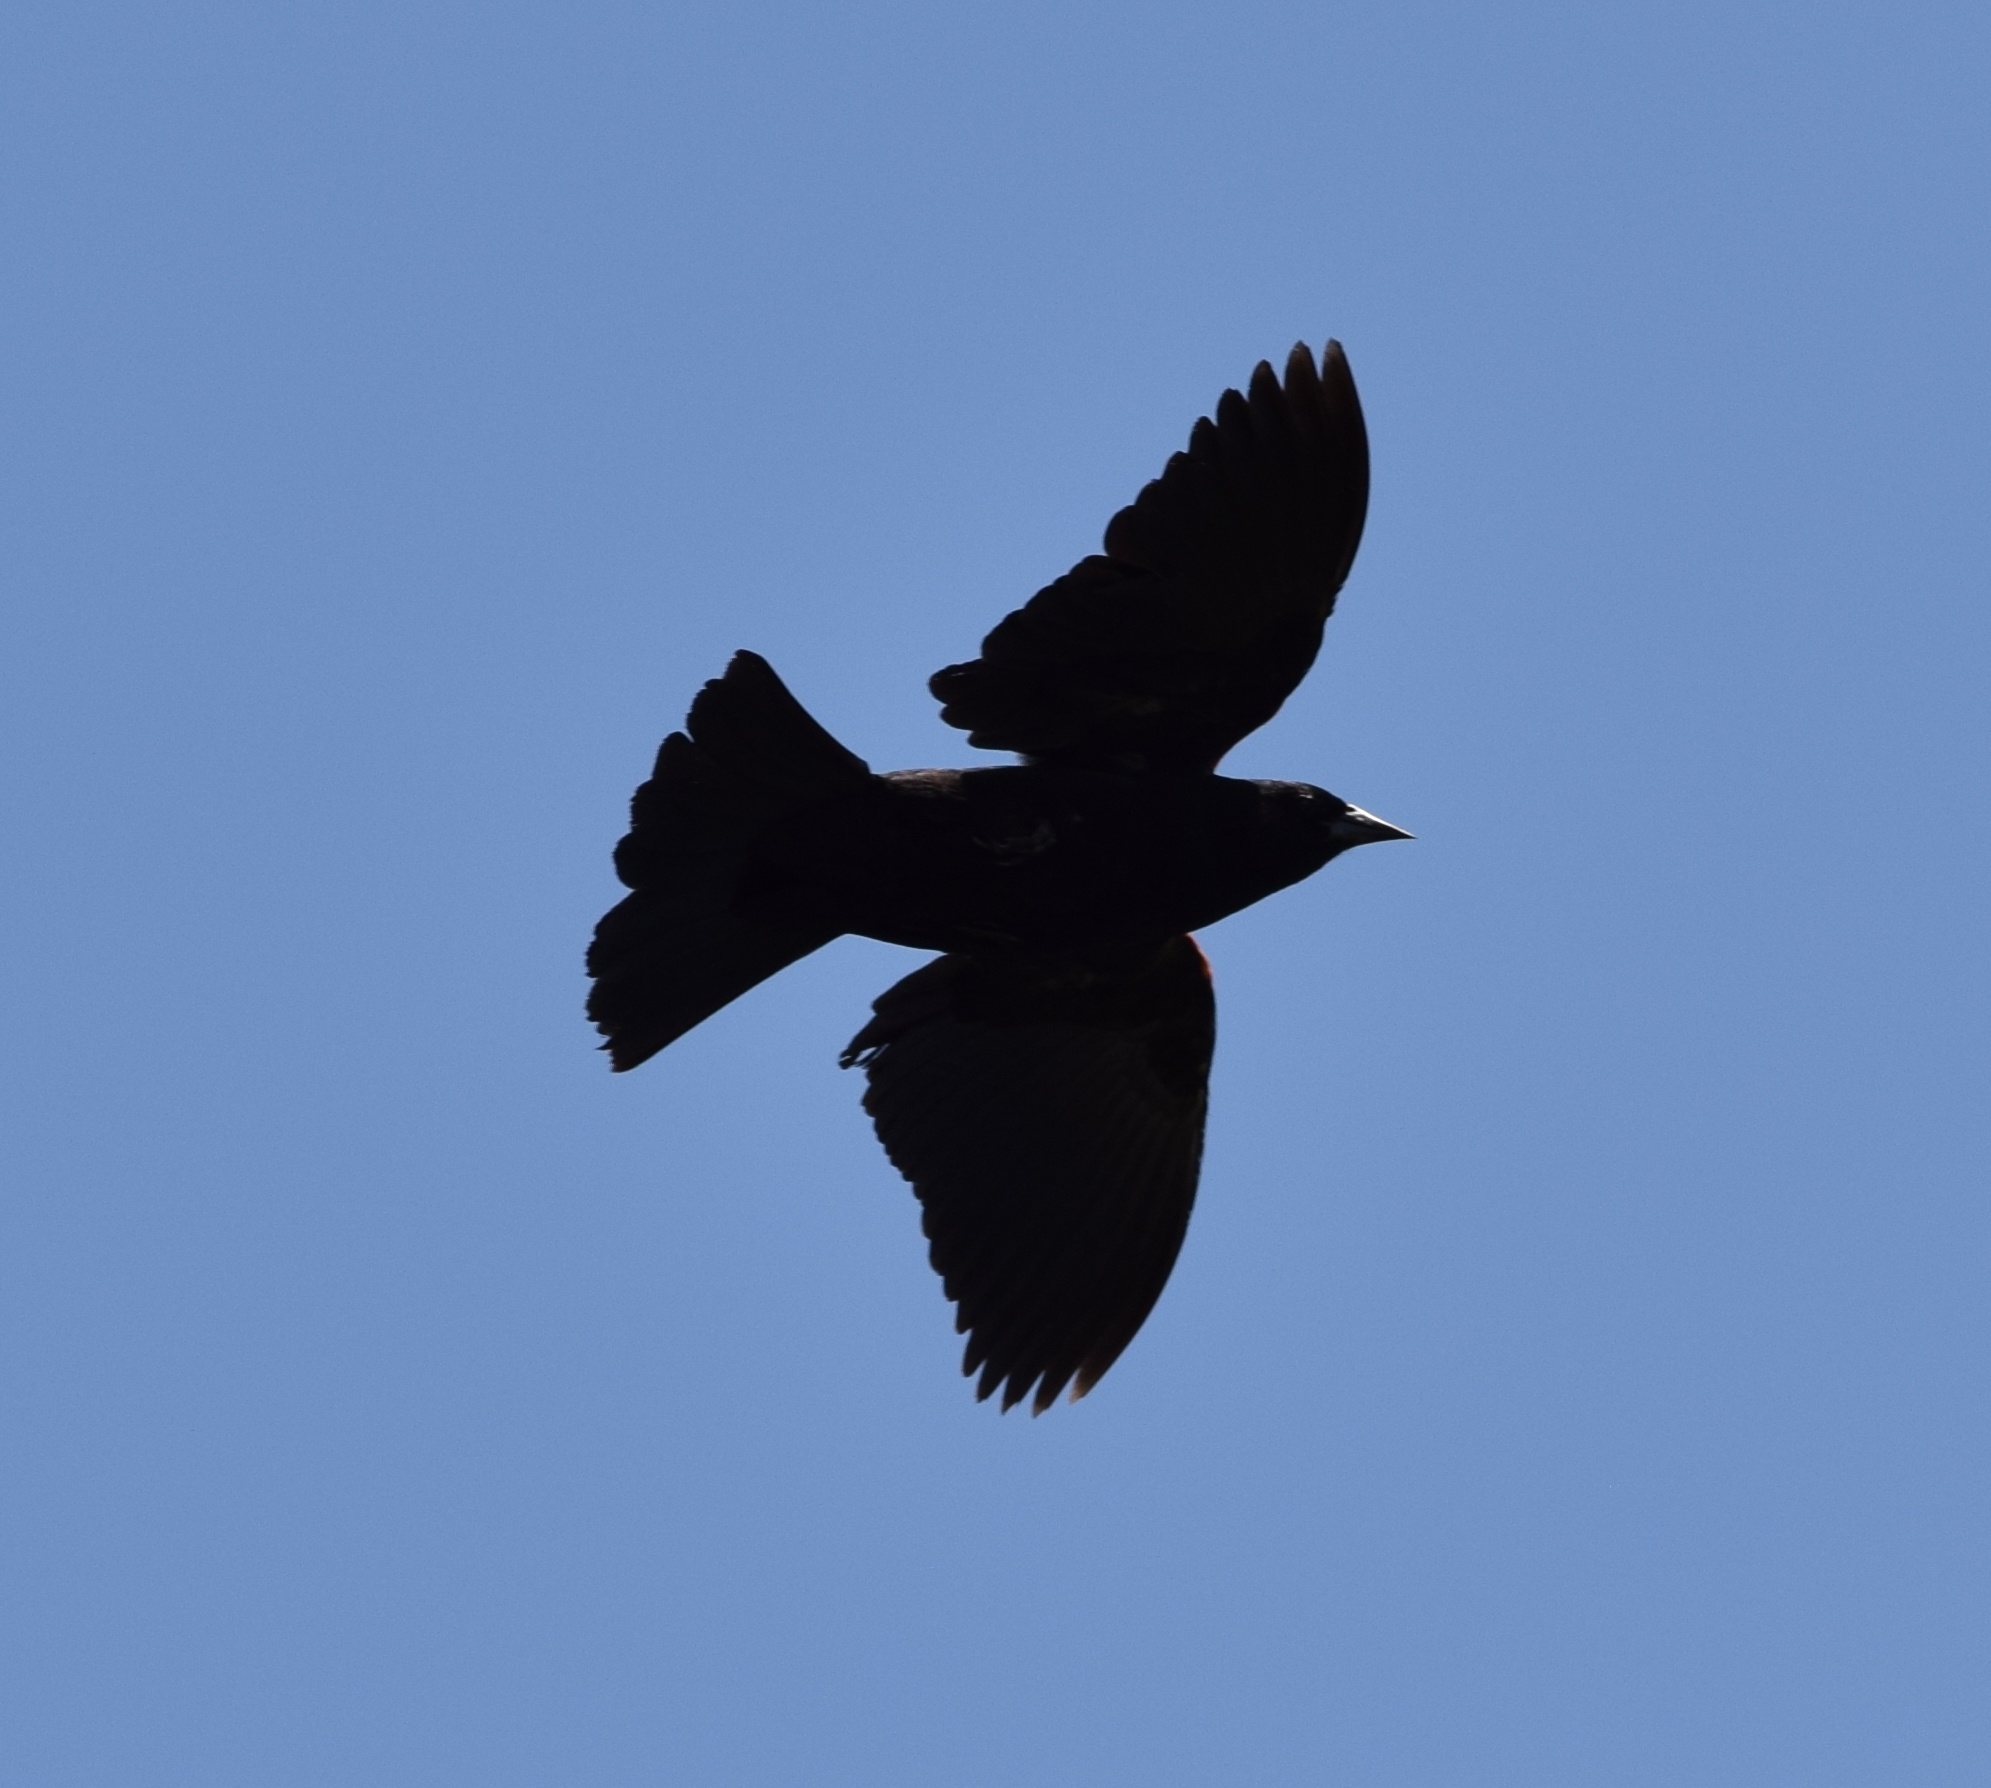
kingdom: Animalia
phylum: Chordata
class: Aves
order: Passeriformes
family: Icteridae
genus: Agelaius
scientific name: Agelaius phoeniceus
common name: Red-winged blackbird
